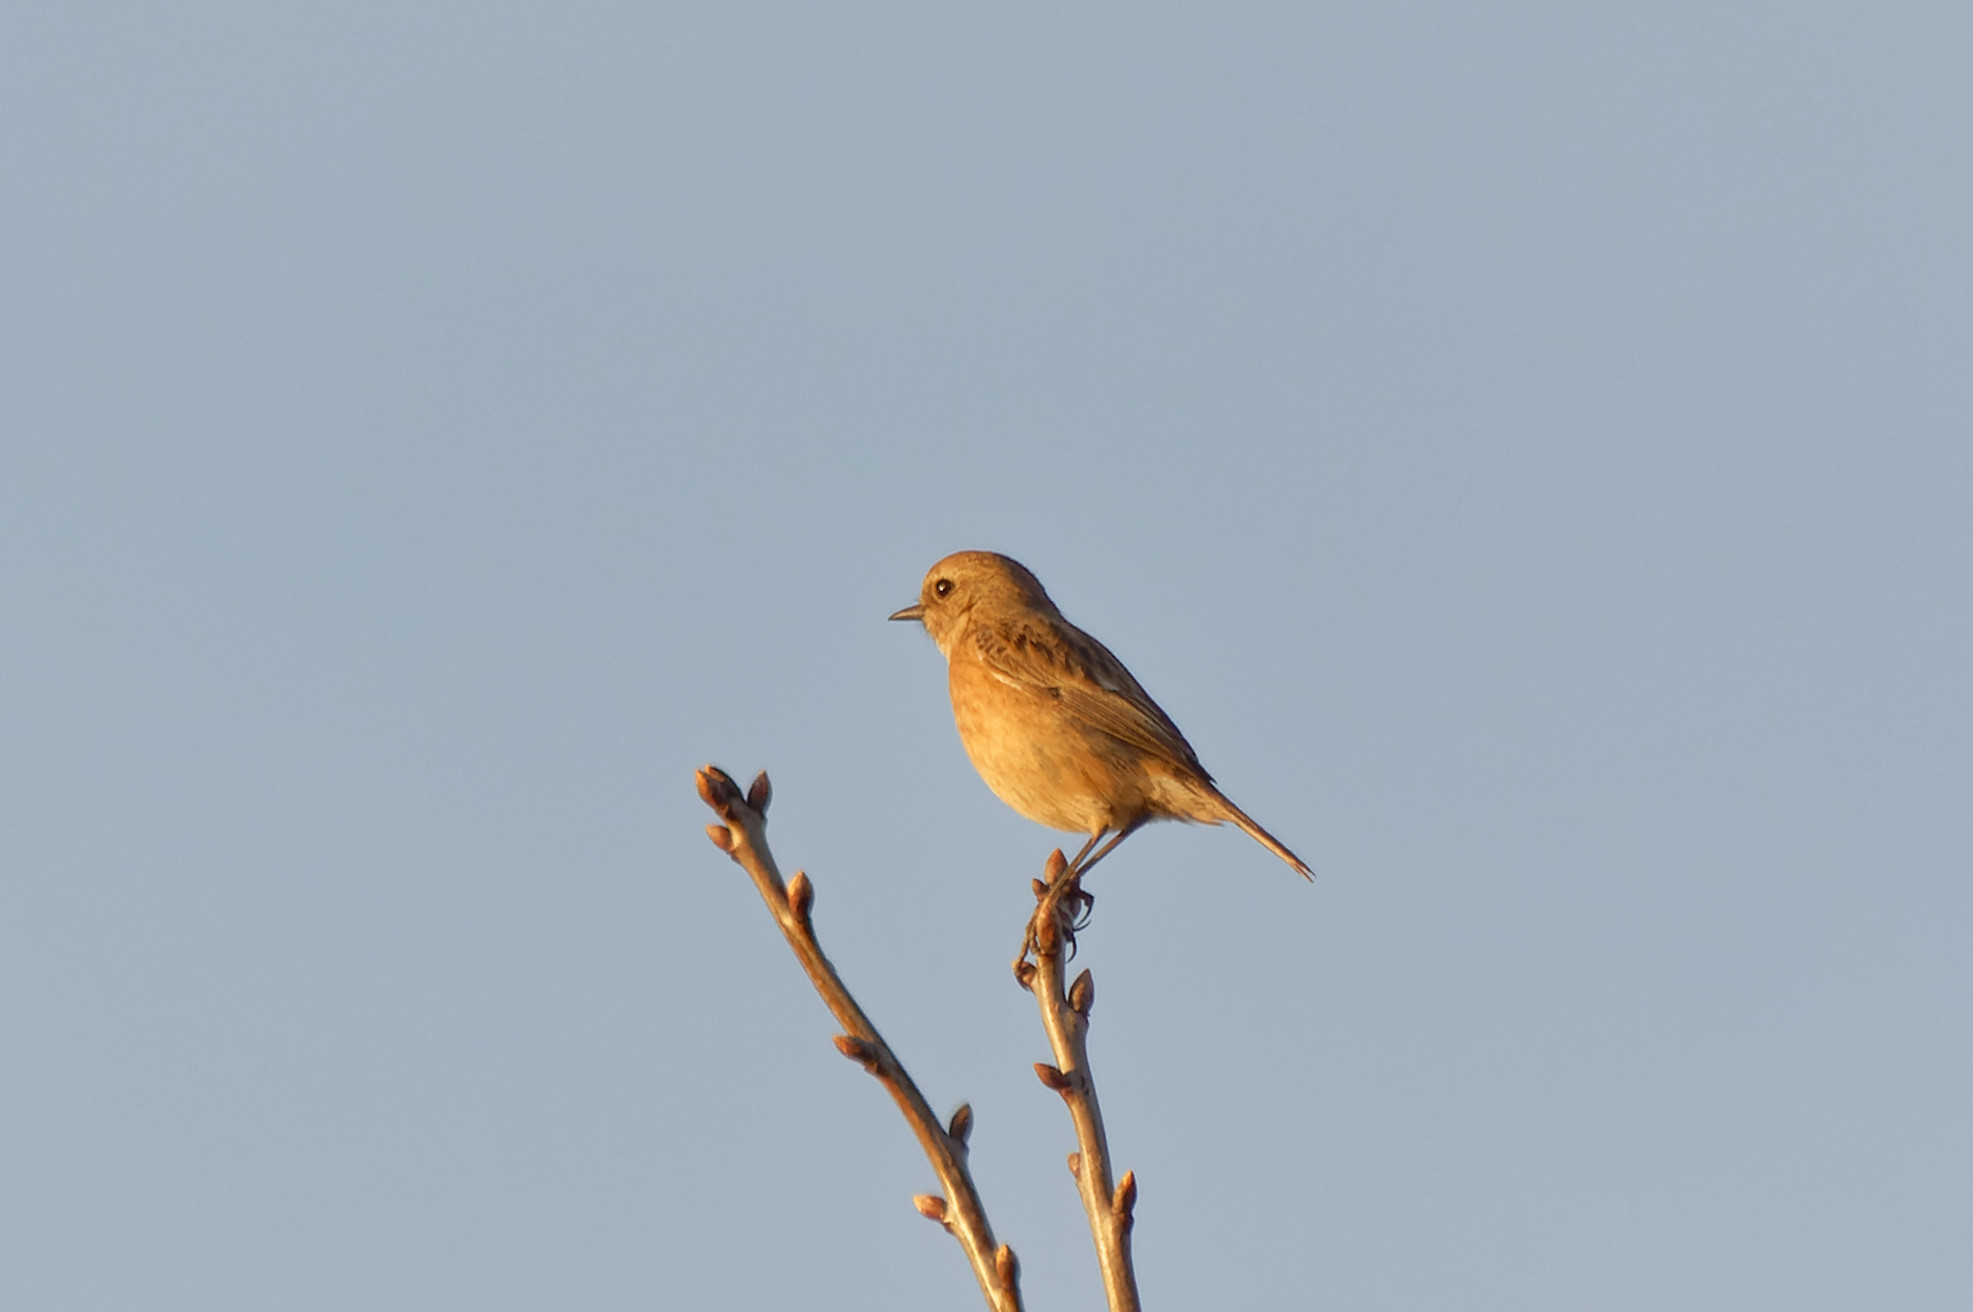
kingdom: Animalia
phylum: Chordata
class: Aves
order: Passeriformes
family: Muscicapidae
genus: Saxicola
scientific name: Saxicola rubicola
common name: European stonechat
